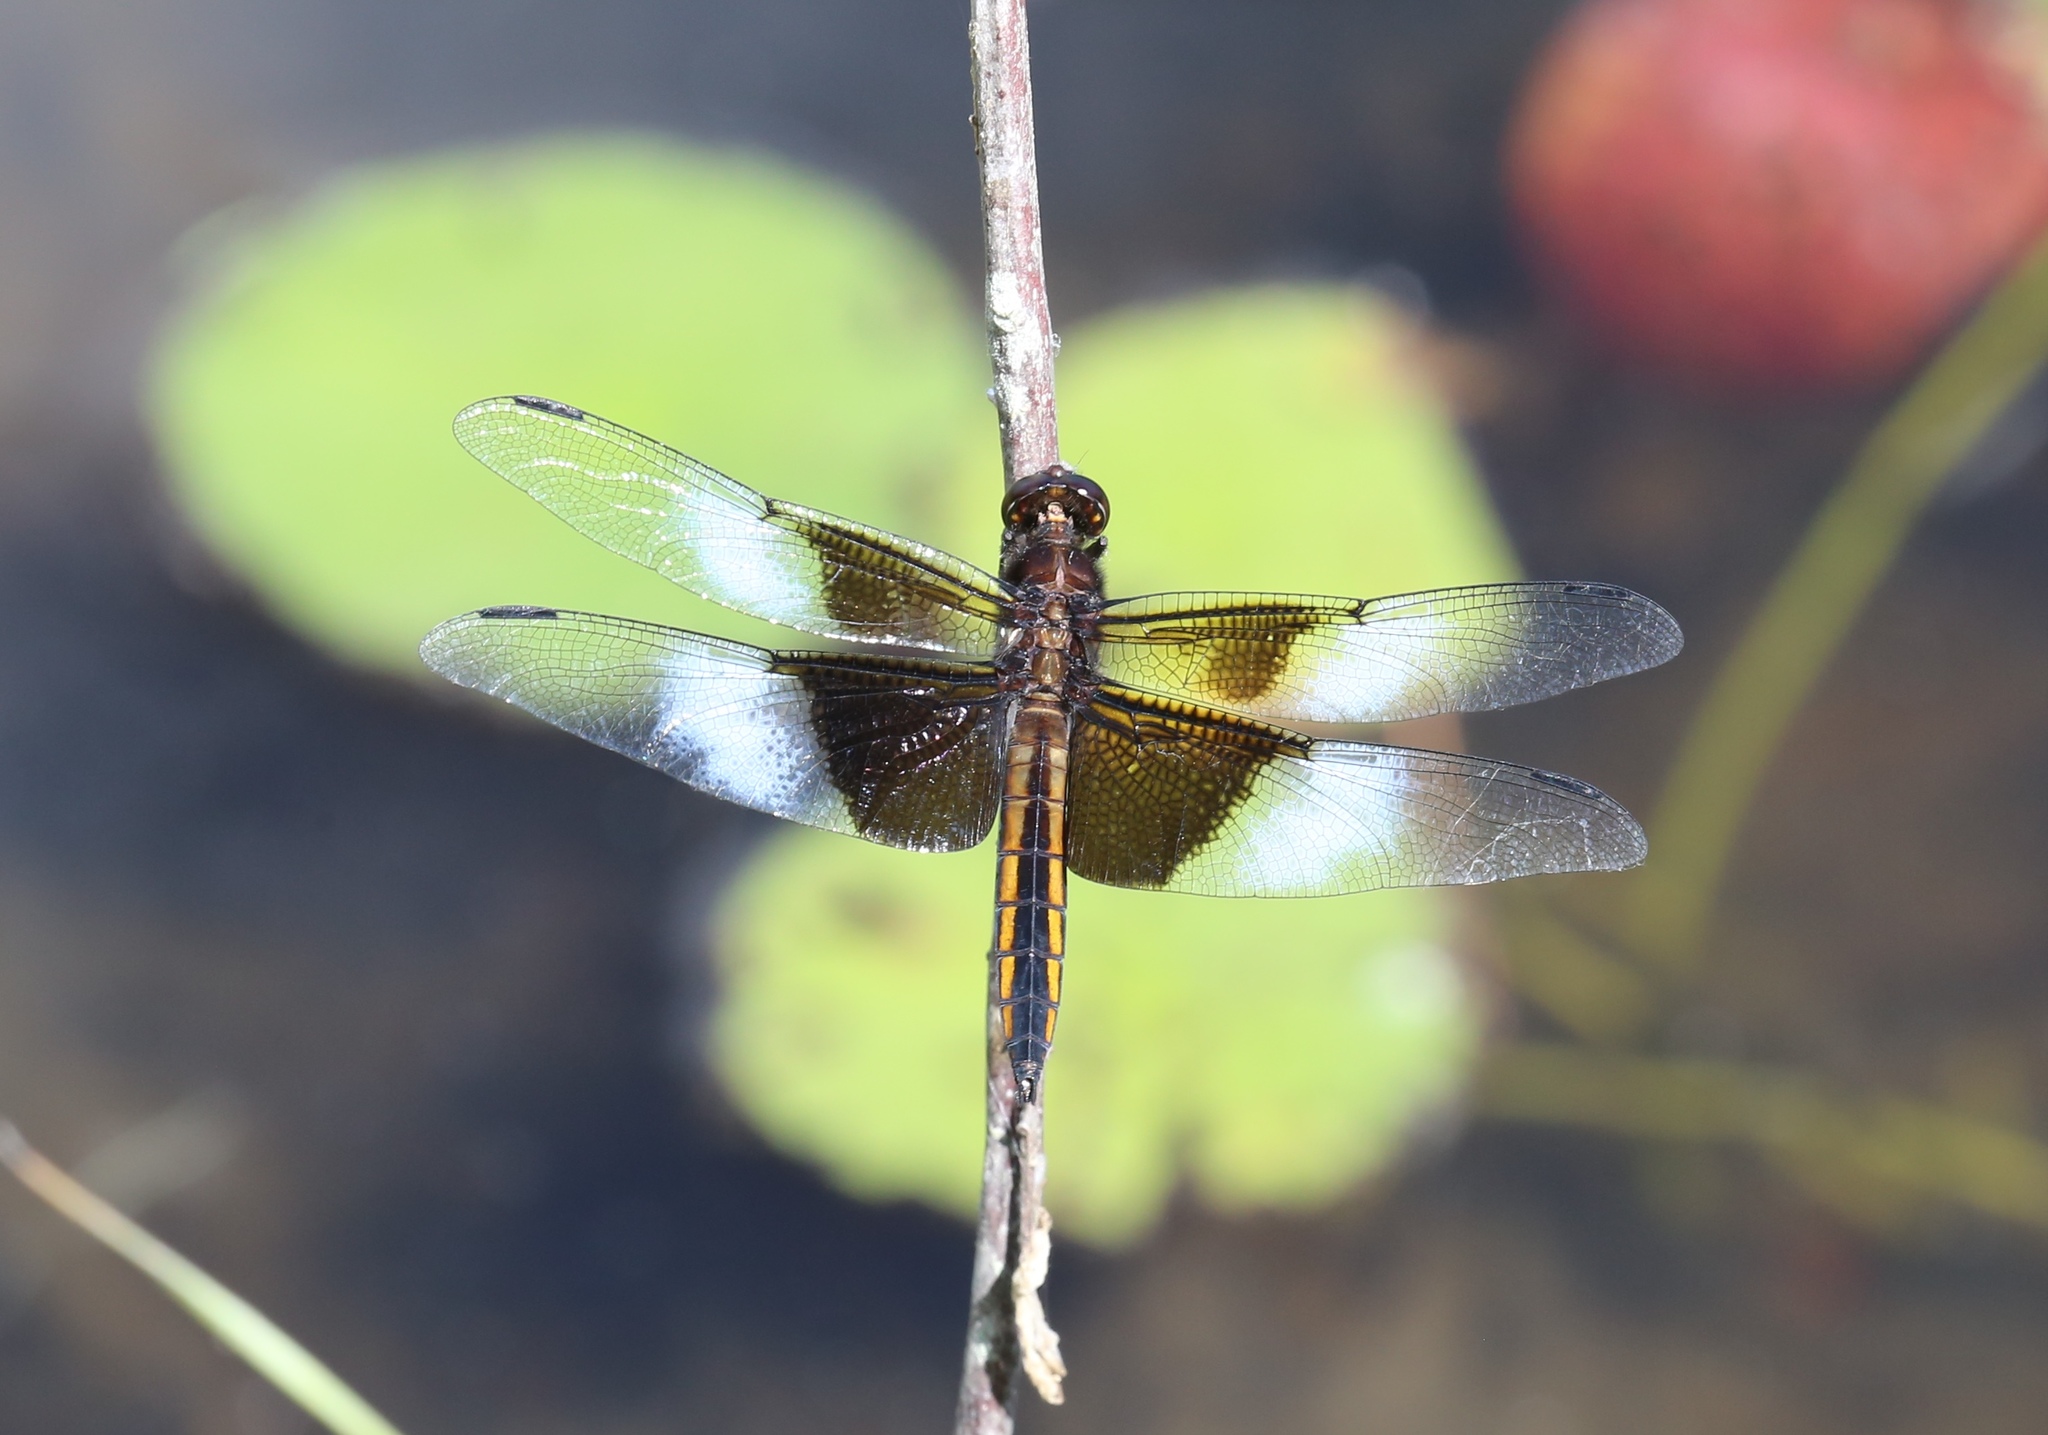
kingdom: Animalia
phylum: Arthropoda
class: Insecta
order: Odonata
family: Libellulidae
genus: Libellula
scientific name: Libellula luctuosa
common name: Widow skimmer
